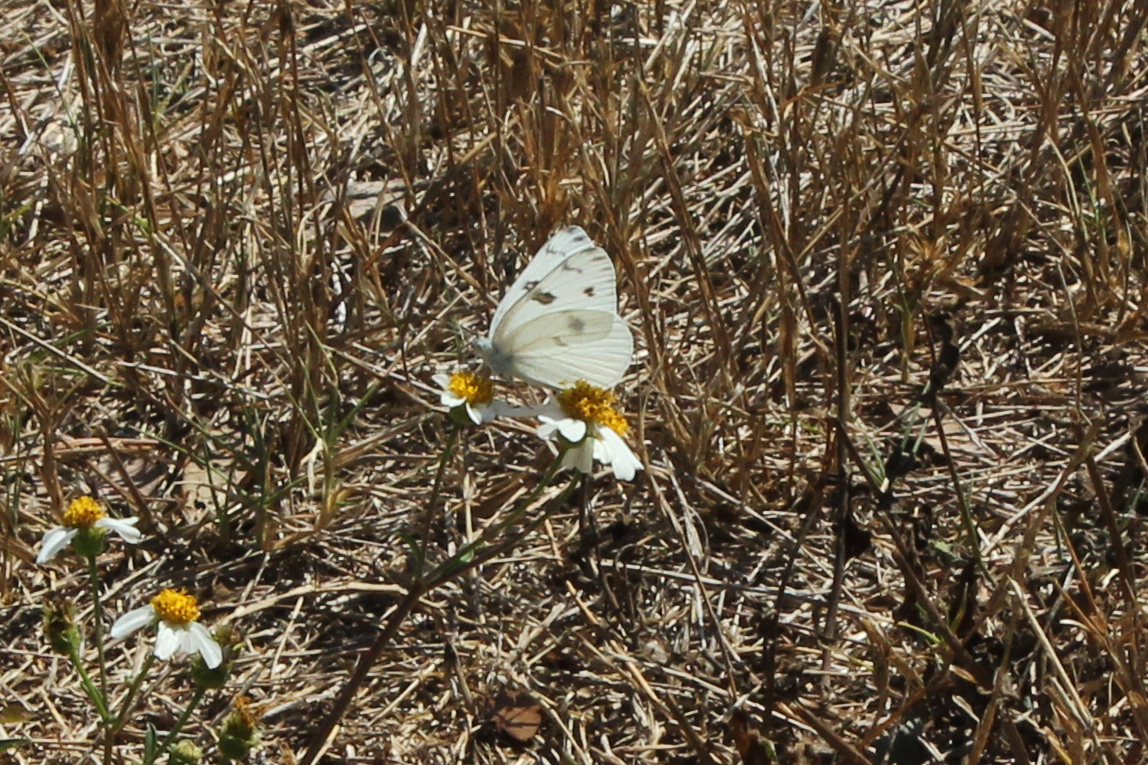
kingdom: Animalia
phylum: Arthropoda
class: Insecta
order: Lepidoptera
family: Pieridae
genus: Pontia
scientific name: Pontia protodice
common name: Checkered white
